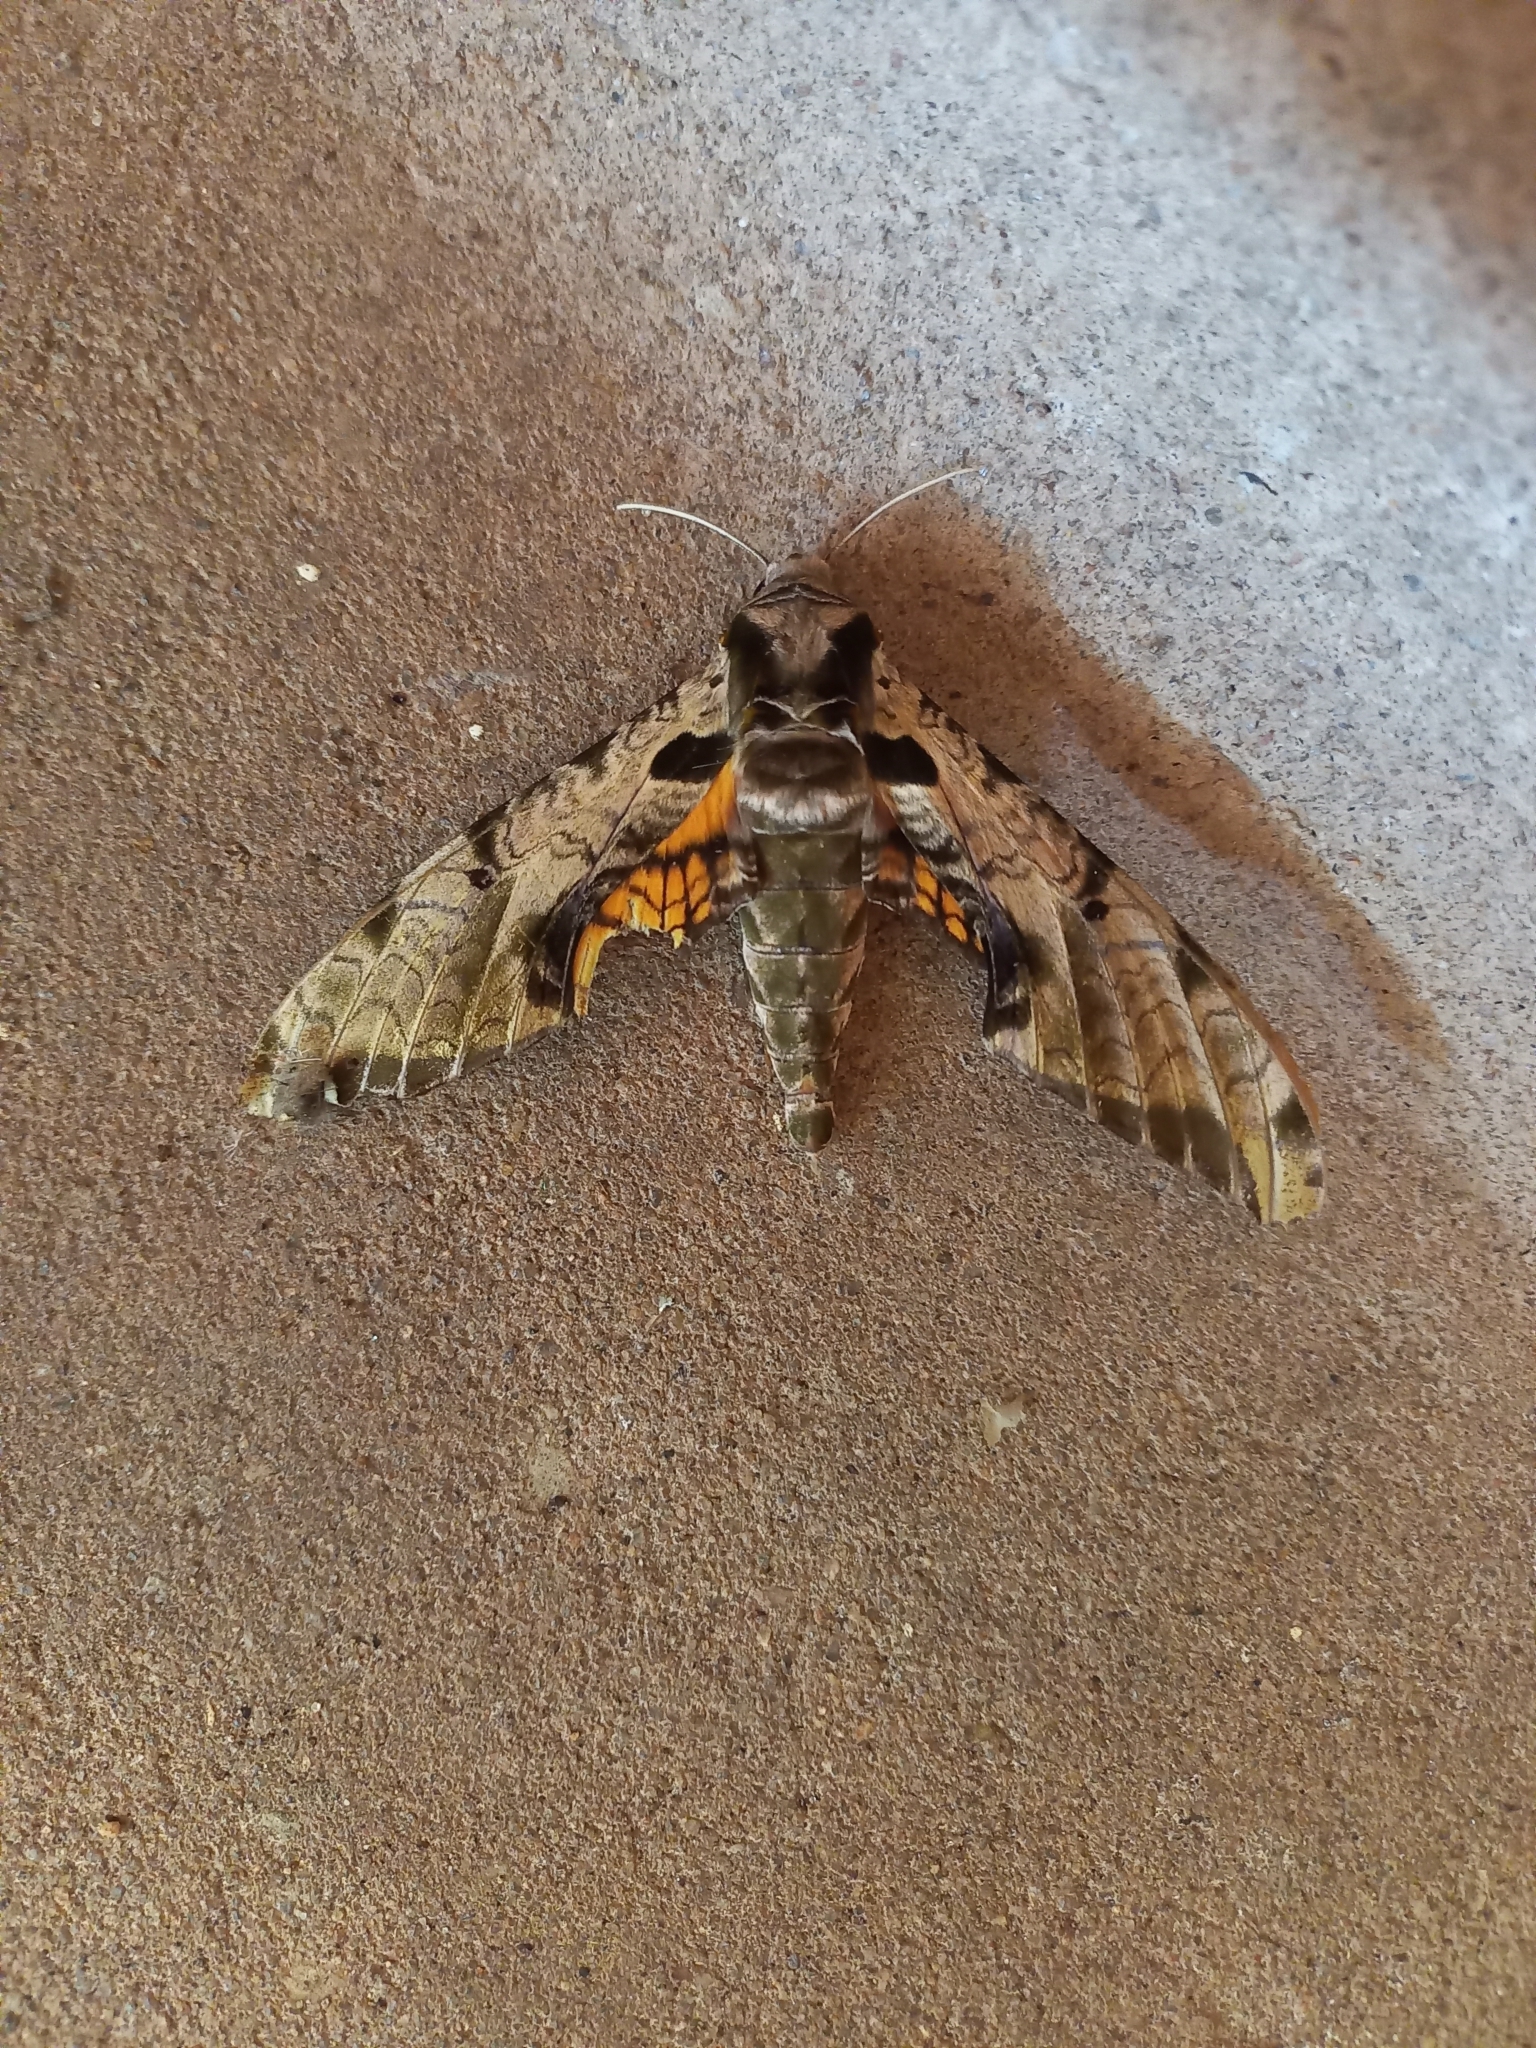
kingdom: Animalia
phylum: Arthropoda
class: Insecta
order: Lepidoptera
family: Sphingidae
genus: Protambulyx
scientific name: Protambulyx eurycles
